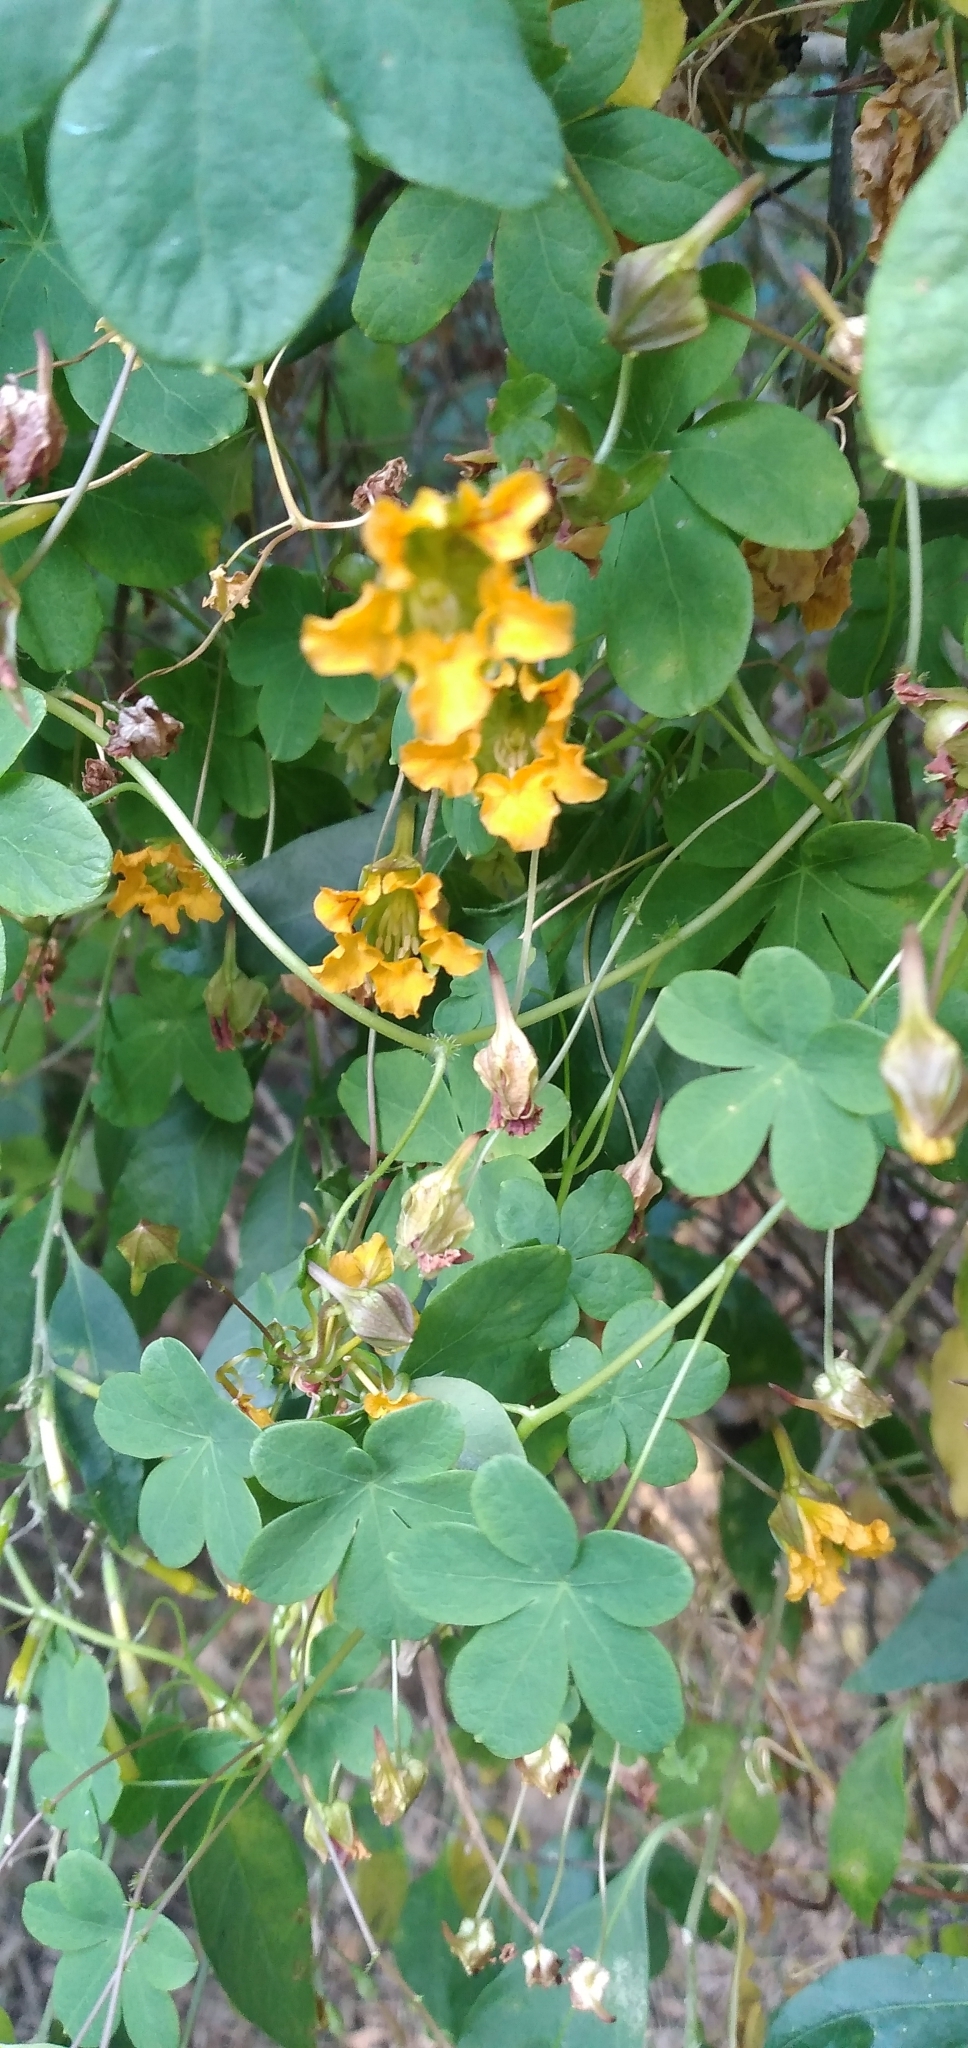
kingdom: Plantae
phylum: Tracheophyta
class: Magnoliopsida
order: Brassicales
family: Tropaeolaceae
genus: Tropaeolum
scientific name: Tropaeolum ciliatum
